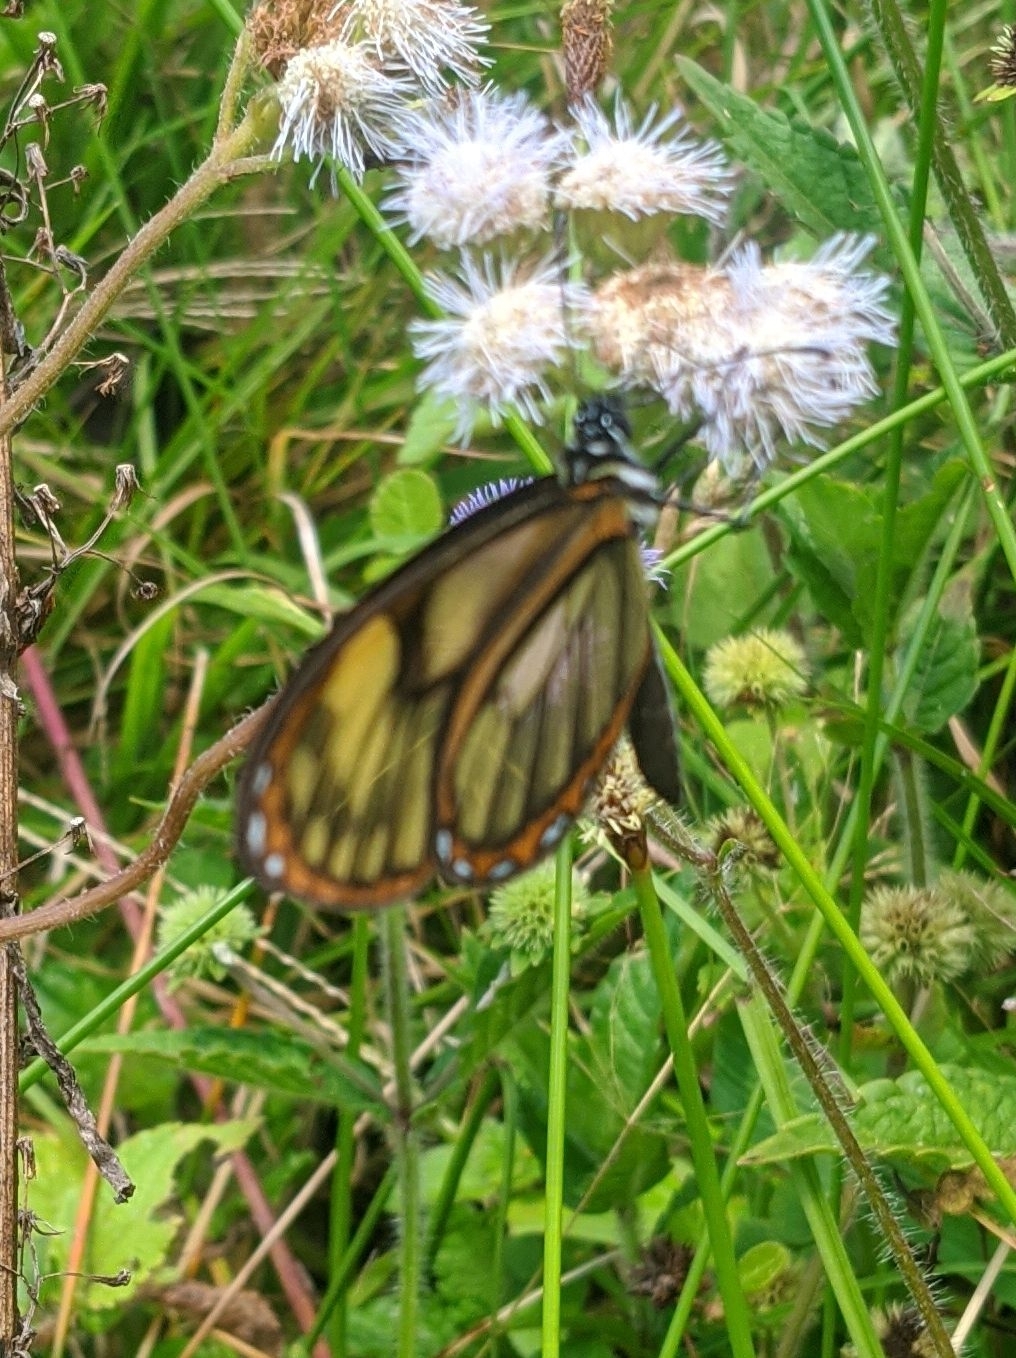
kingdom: Animalia
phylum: Arthropoda
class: Insecta
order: Lepidoptera
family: Nymphalidae
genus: Pteronymia
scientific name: Pteronymia veia
